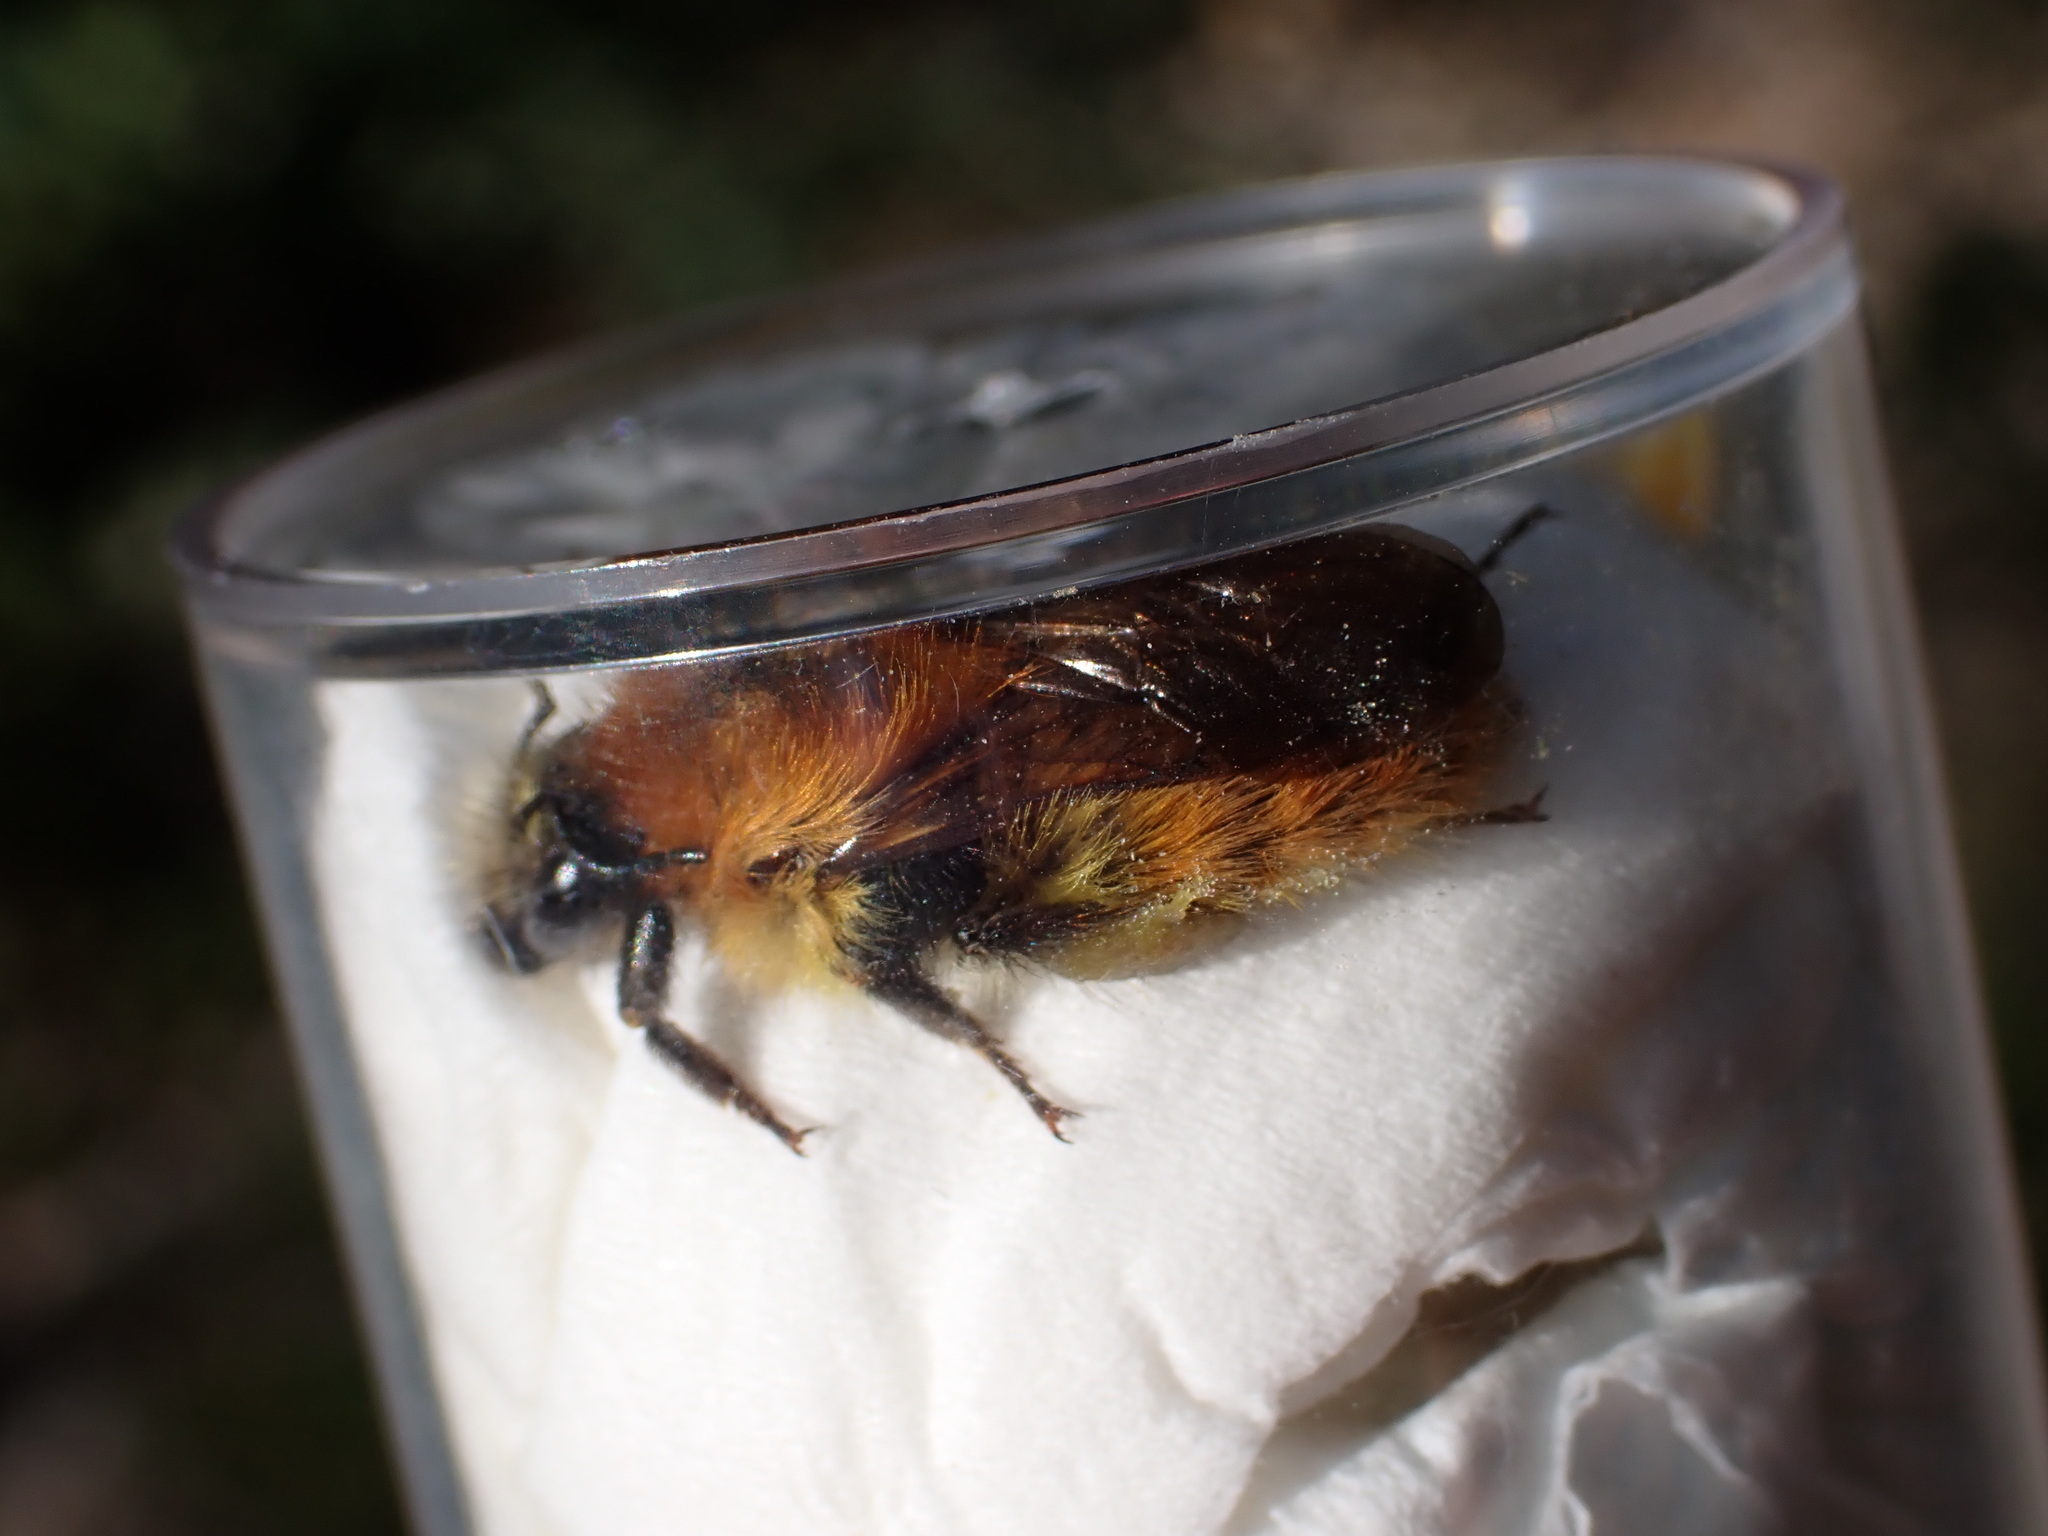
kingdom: Animalia
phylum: Arthropoda
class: Insecta
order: Hymenoptera
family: Apidae
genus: Bombus
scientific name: Bombus pascuorum
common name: Common carder bee
